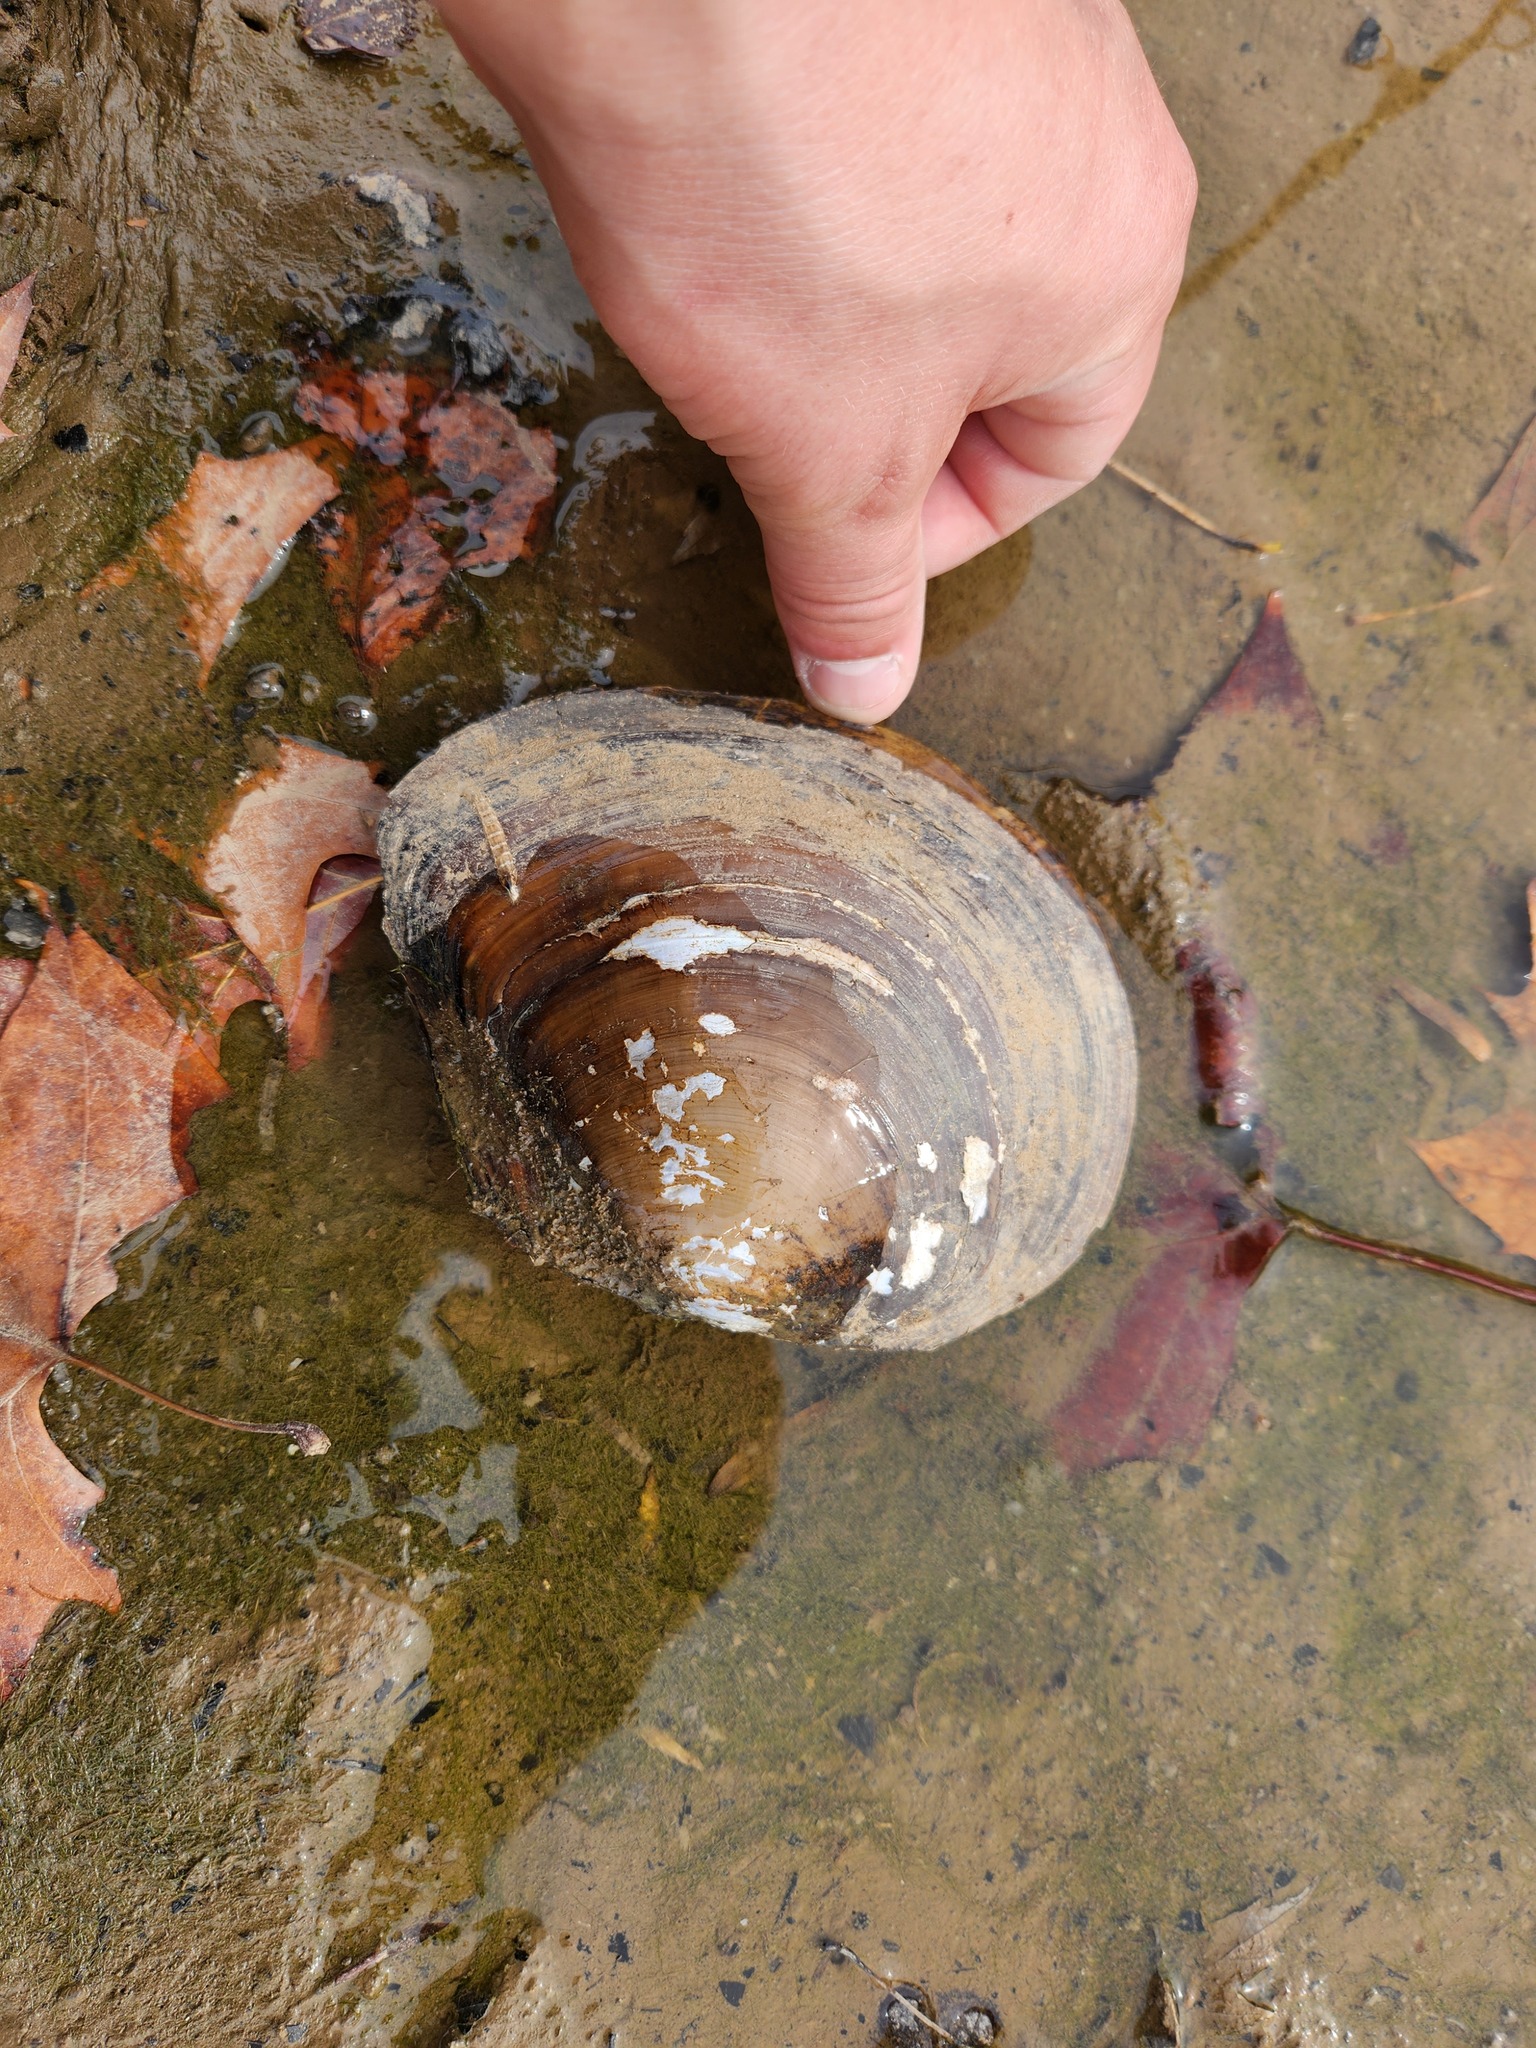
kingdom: Animalia
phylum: Mollusca
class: Bivalvia
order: Unionida
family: Unionidae
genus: Utterbackiana
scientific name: Utterbackiana suborbiculata
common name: Flat floater
